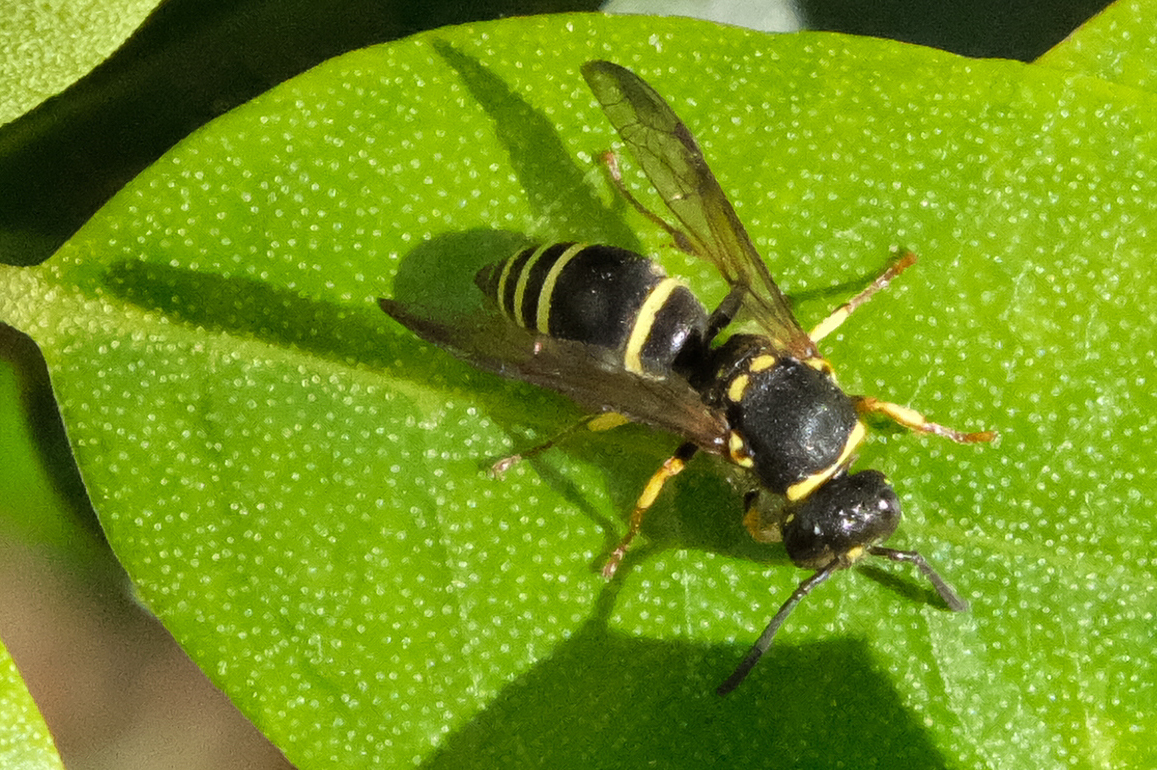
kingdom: Animalia
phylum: Arthropoda
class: Insecta
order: Hymenoptera
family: Vespidae
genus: Ancistrocerus
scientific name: Ancistrocerus
